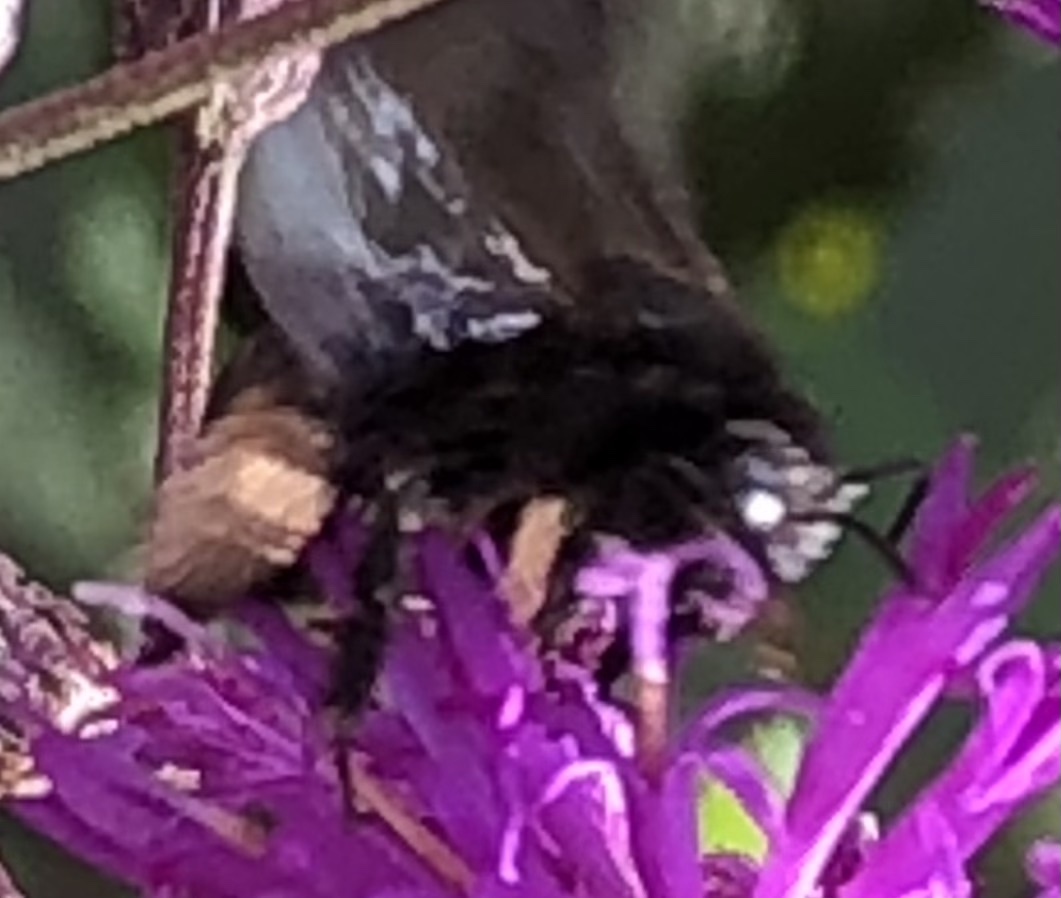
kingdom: Animalia
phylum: Arthropoda
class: Insecta
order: Hymenoptera
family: Apidae
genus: Melissodes
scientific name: Melissodes bimaculatus
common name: Two-spotted long-horned bee
